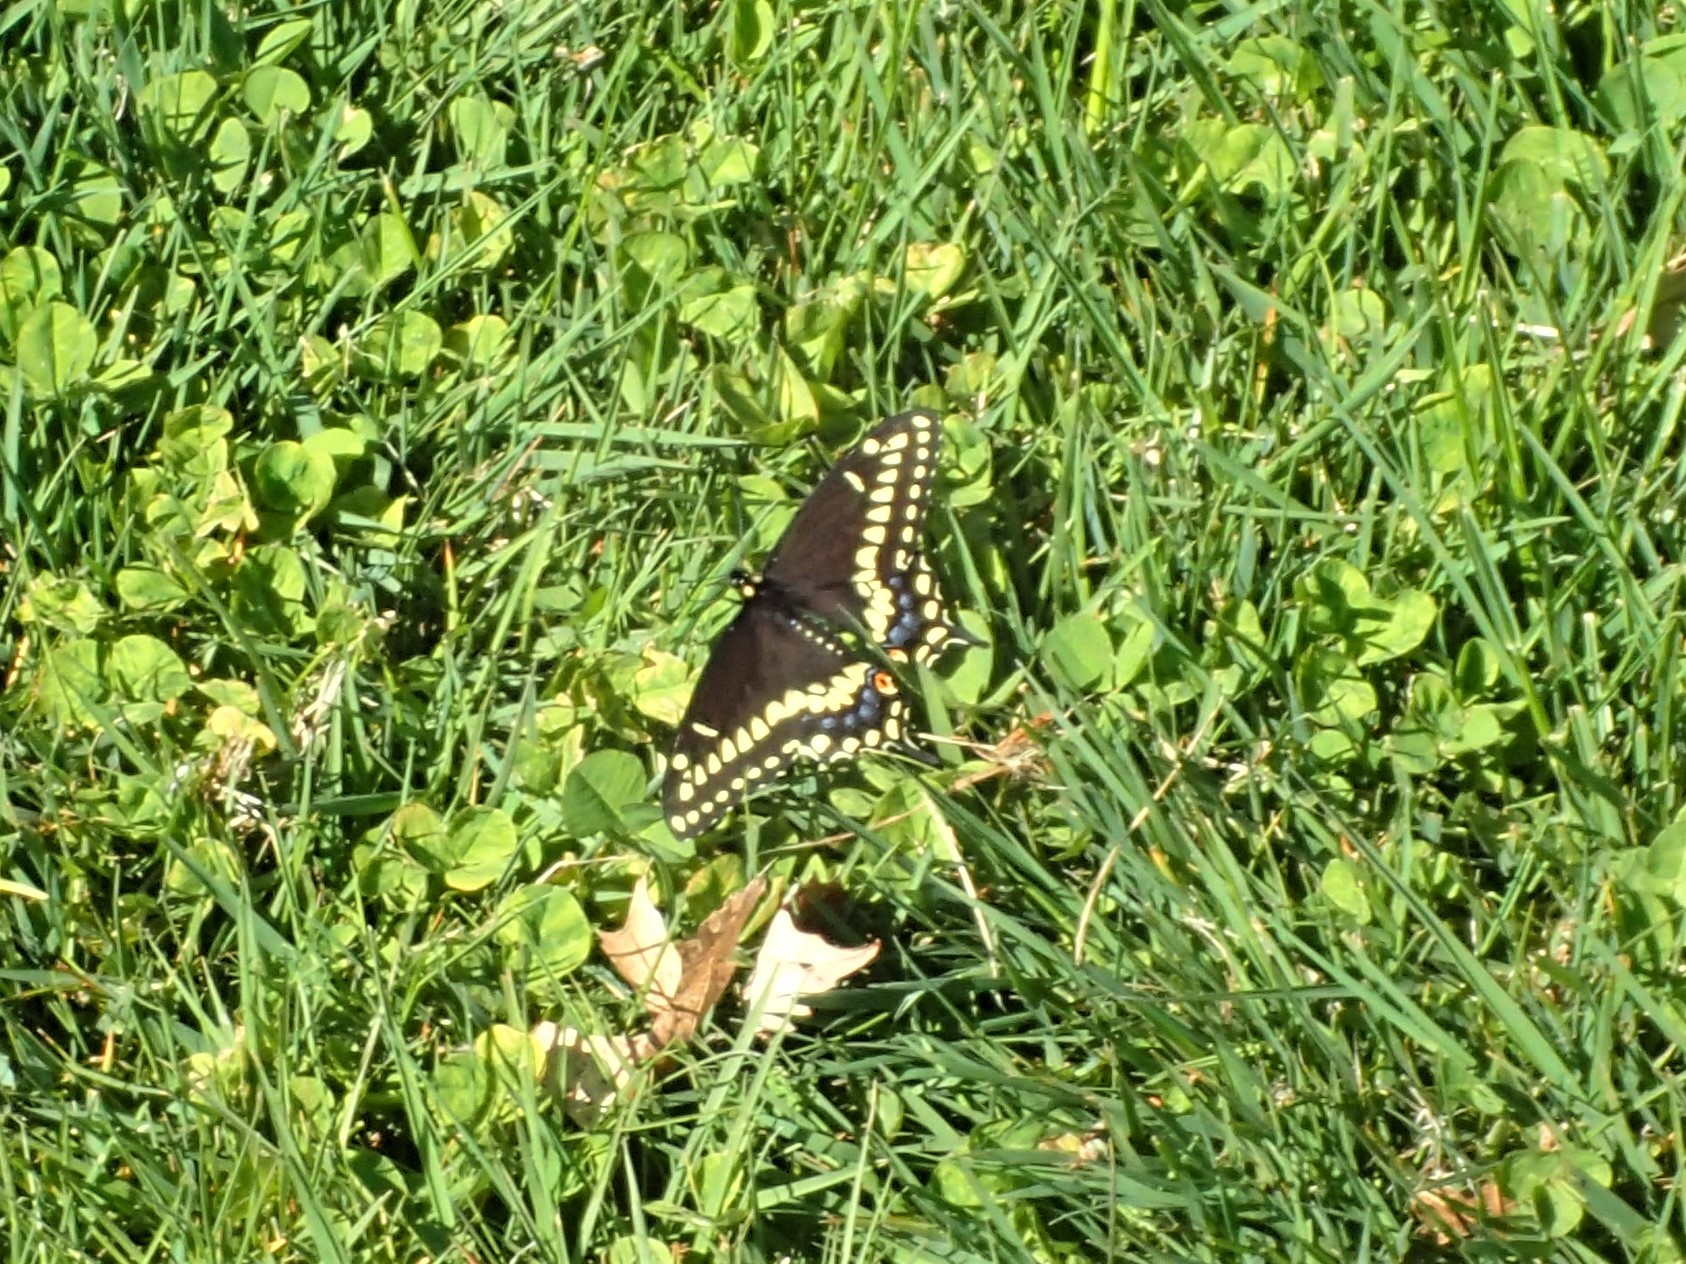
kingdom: Animalia
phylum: Arthropoda
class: Insecta
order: Lepidoptera
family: Papilionidae
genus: Papilio
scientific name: Papilio polyxenes
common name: Black swallowtail
